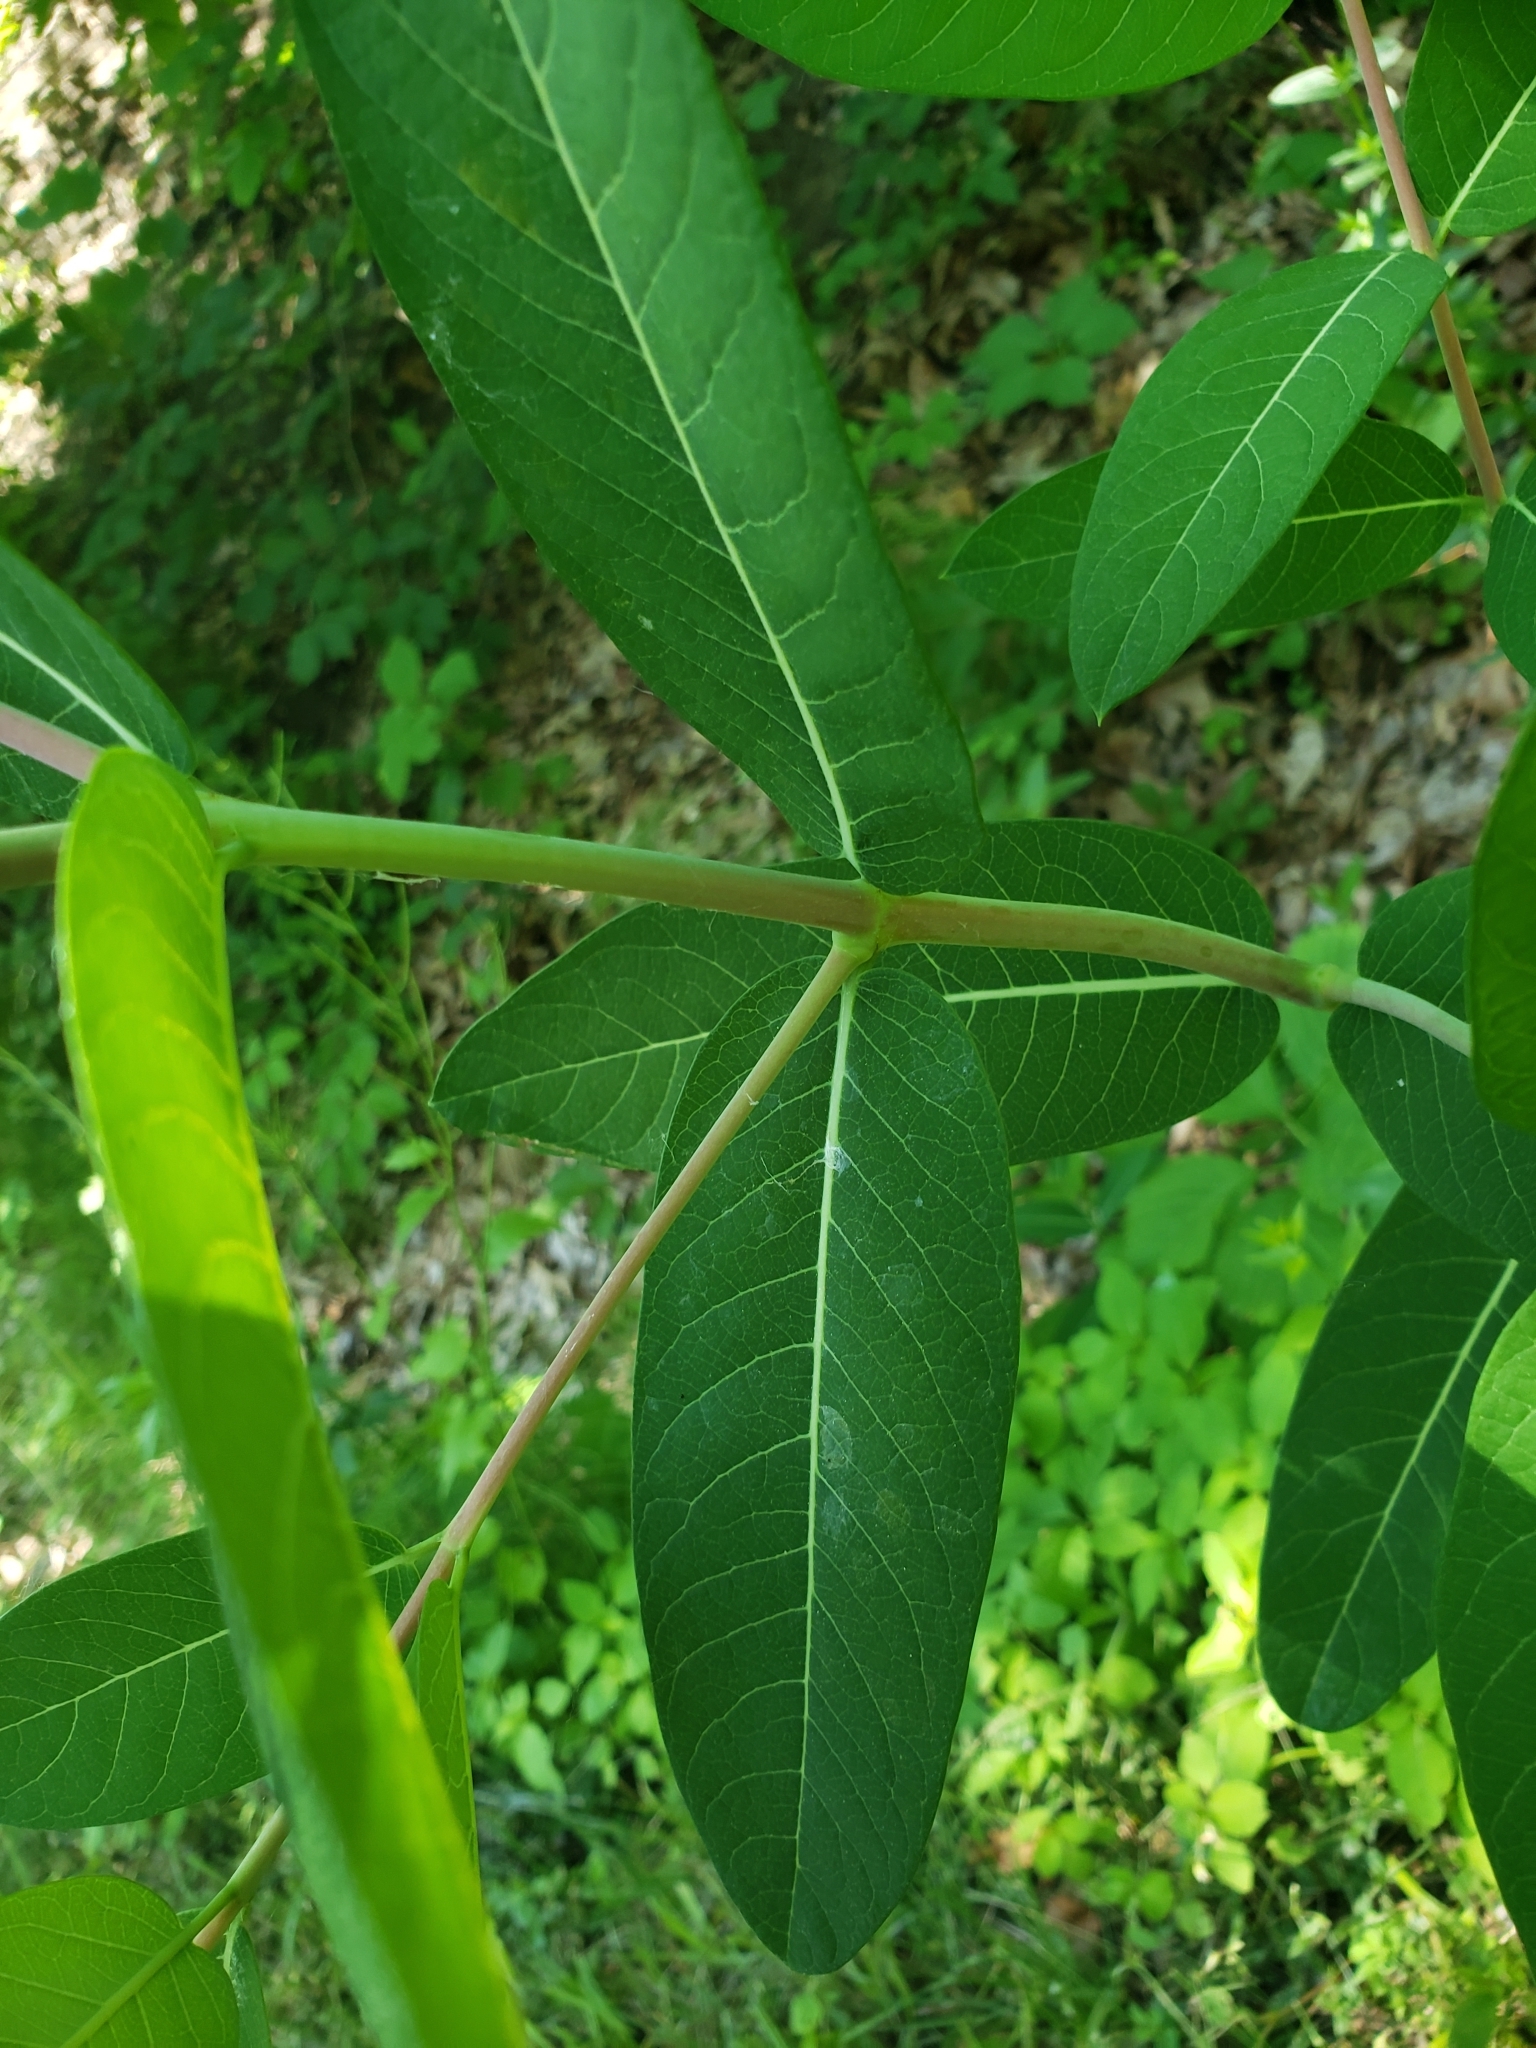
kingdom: Plantae
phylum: Tracheophyta
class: Magnoliopsida
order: Gentianales
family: Apocynaceae
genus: Apocynum
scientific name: Apocynum cannabinum
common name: Hemp dogbane
